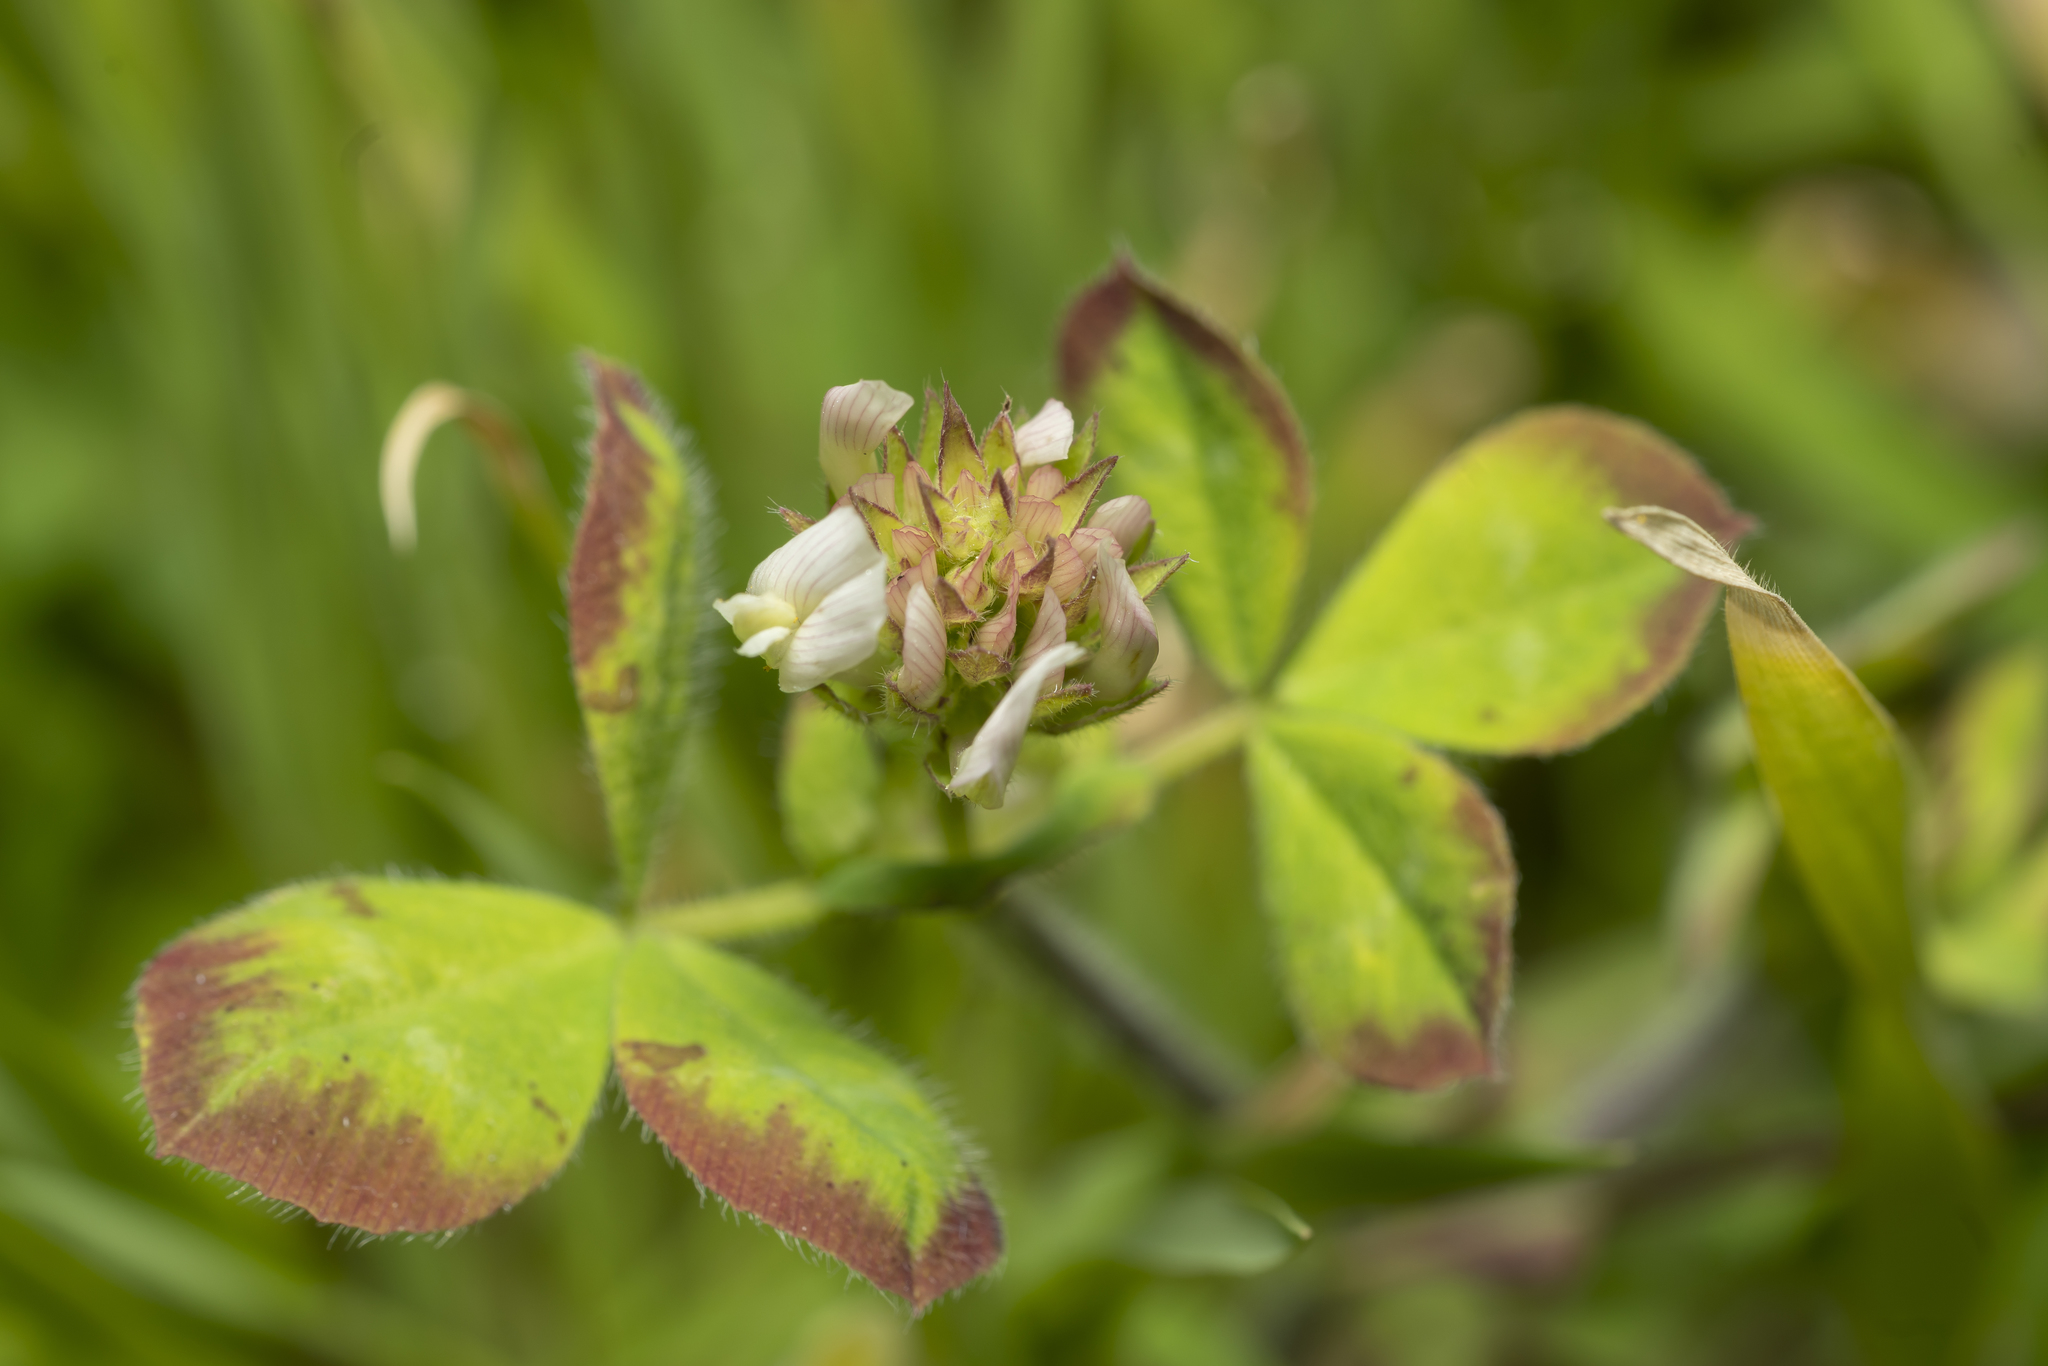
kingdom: Plantae
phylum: Tracheophyta
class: Magnoliopsida
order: Fabales
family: Fabaceae
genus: Trifolium
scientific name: Trifolium clypeatum
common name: Shield clover
